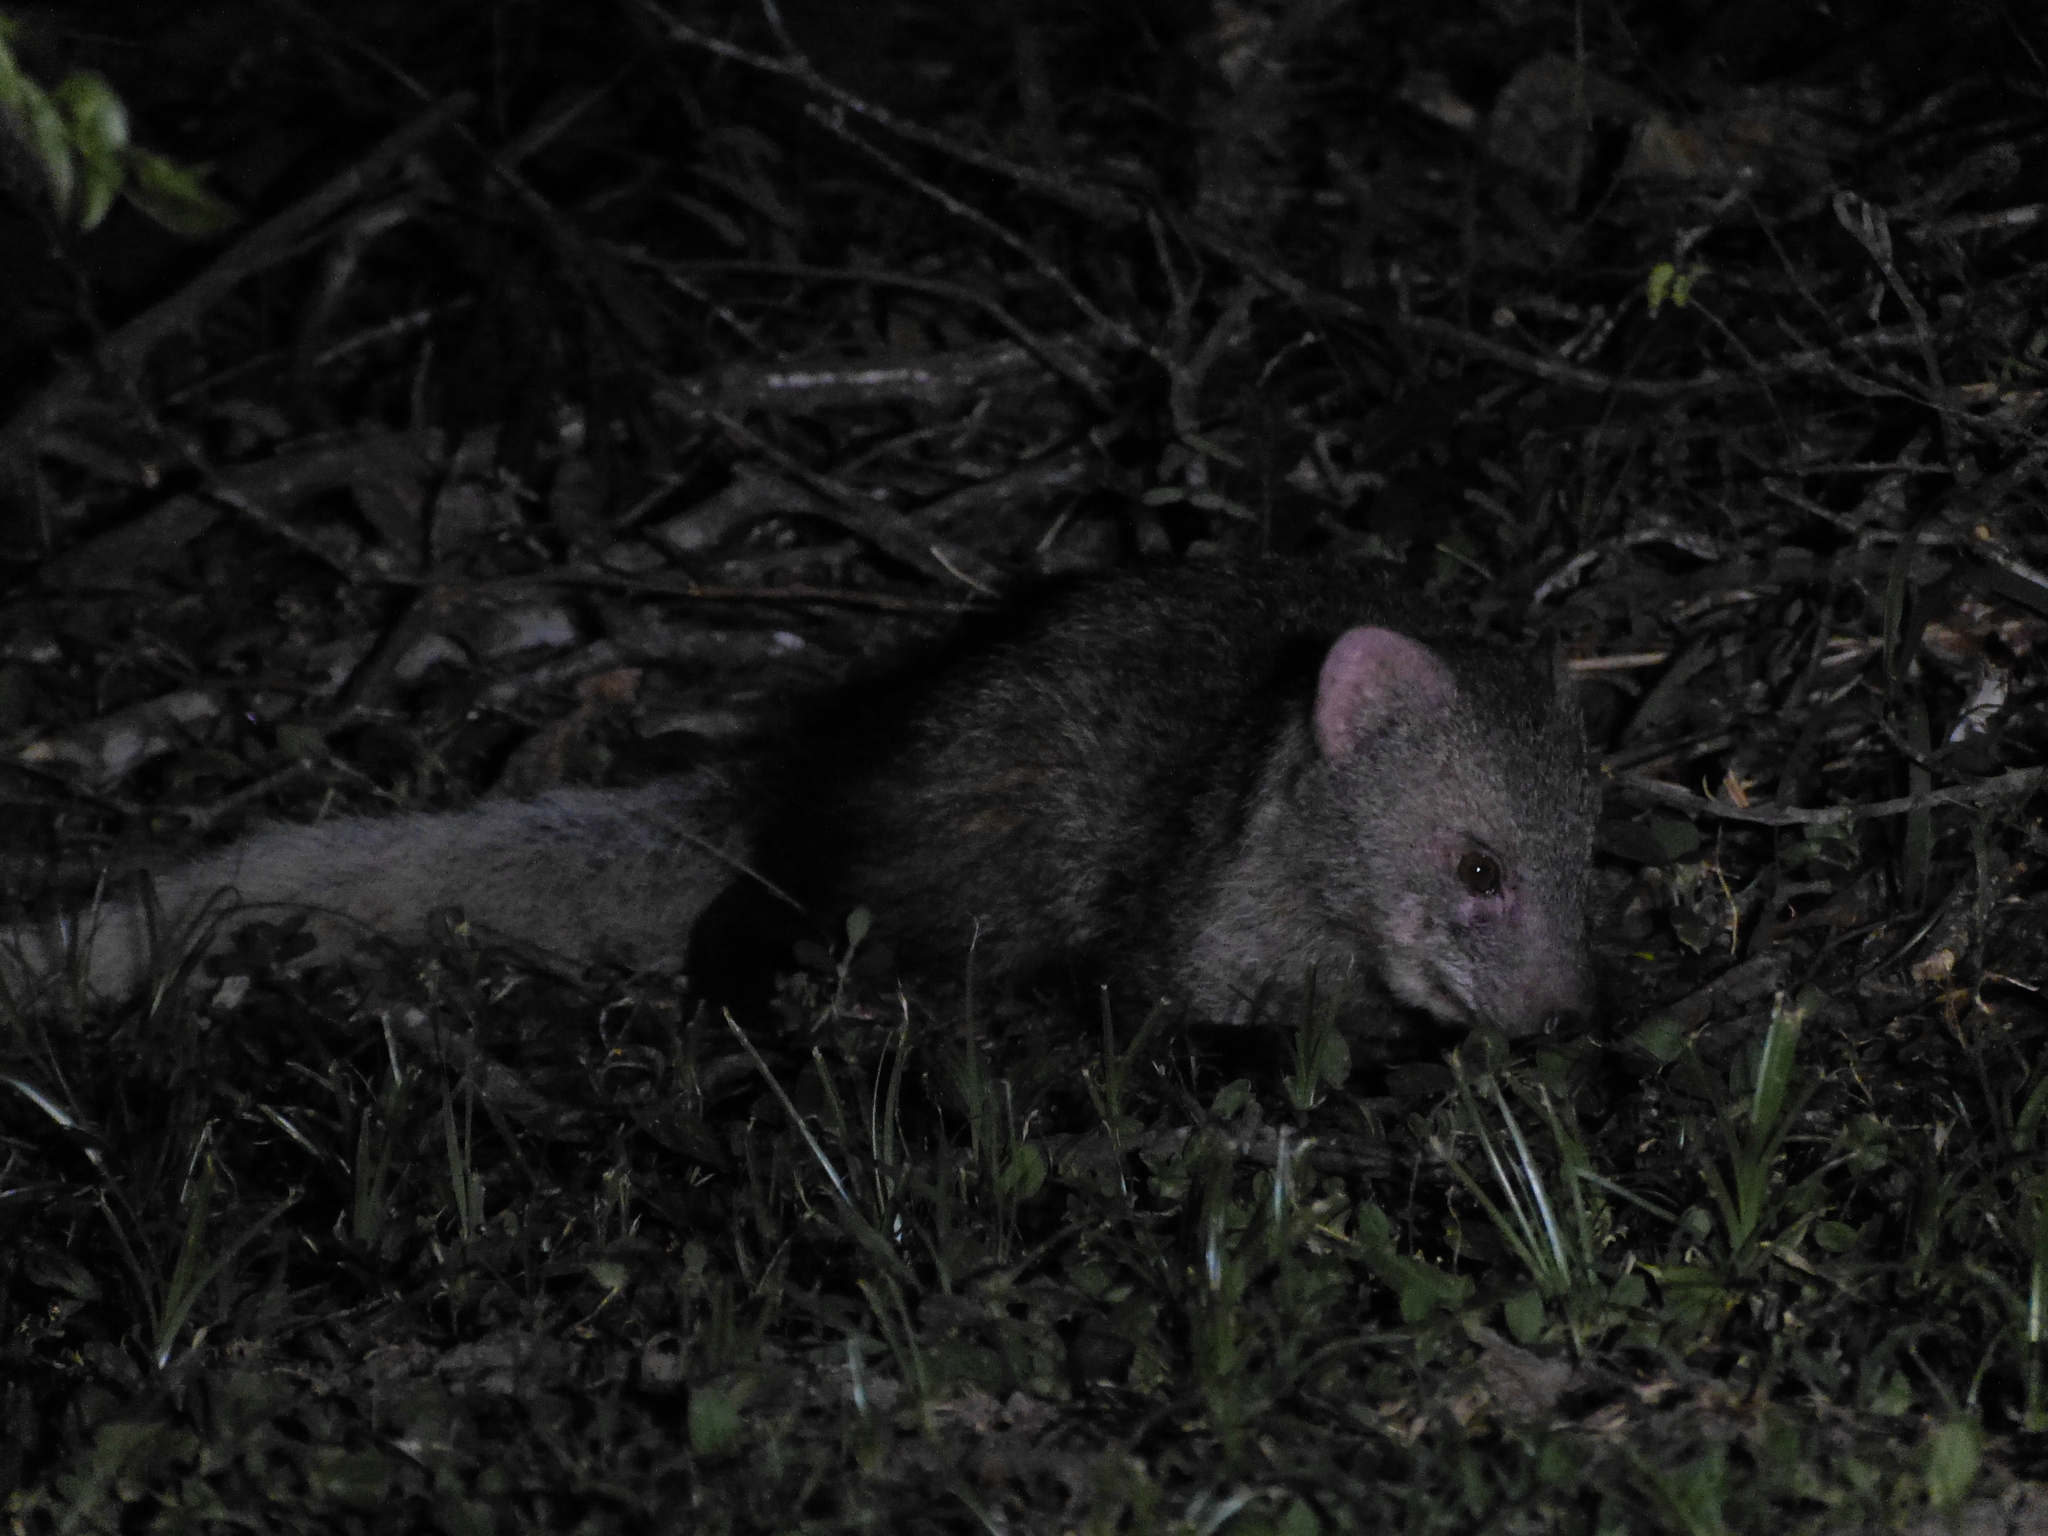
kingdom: Animalia
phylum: Chordata
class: Mammalia
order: Carnivora
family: Herpestidae
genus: Ichneumia
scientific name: Ichneumia albicauda
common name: White-tailed mongoose
